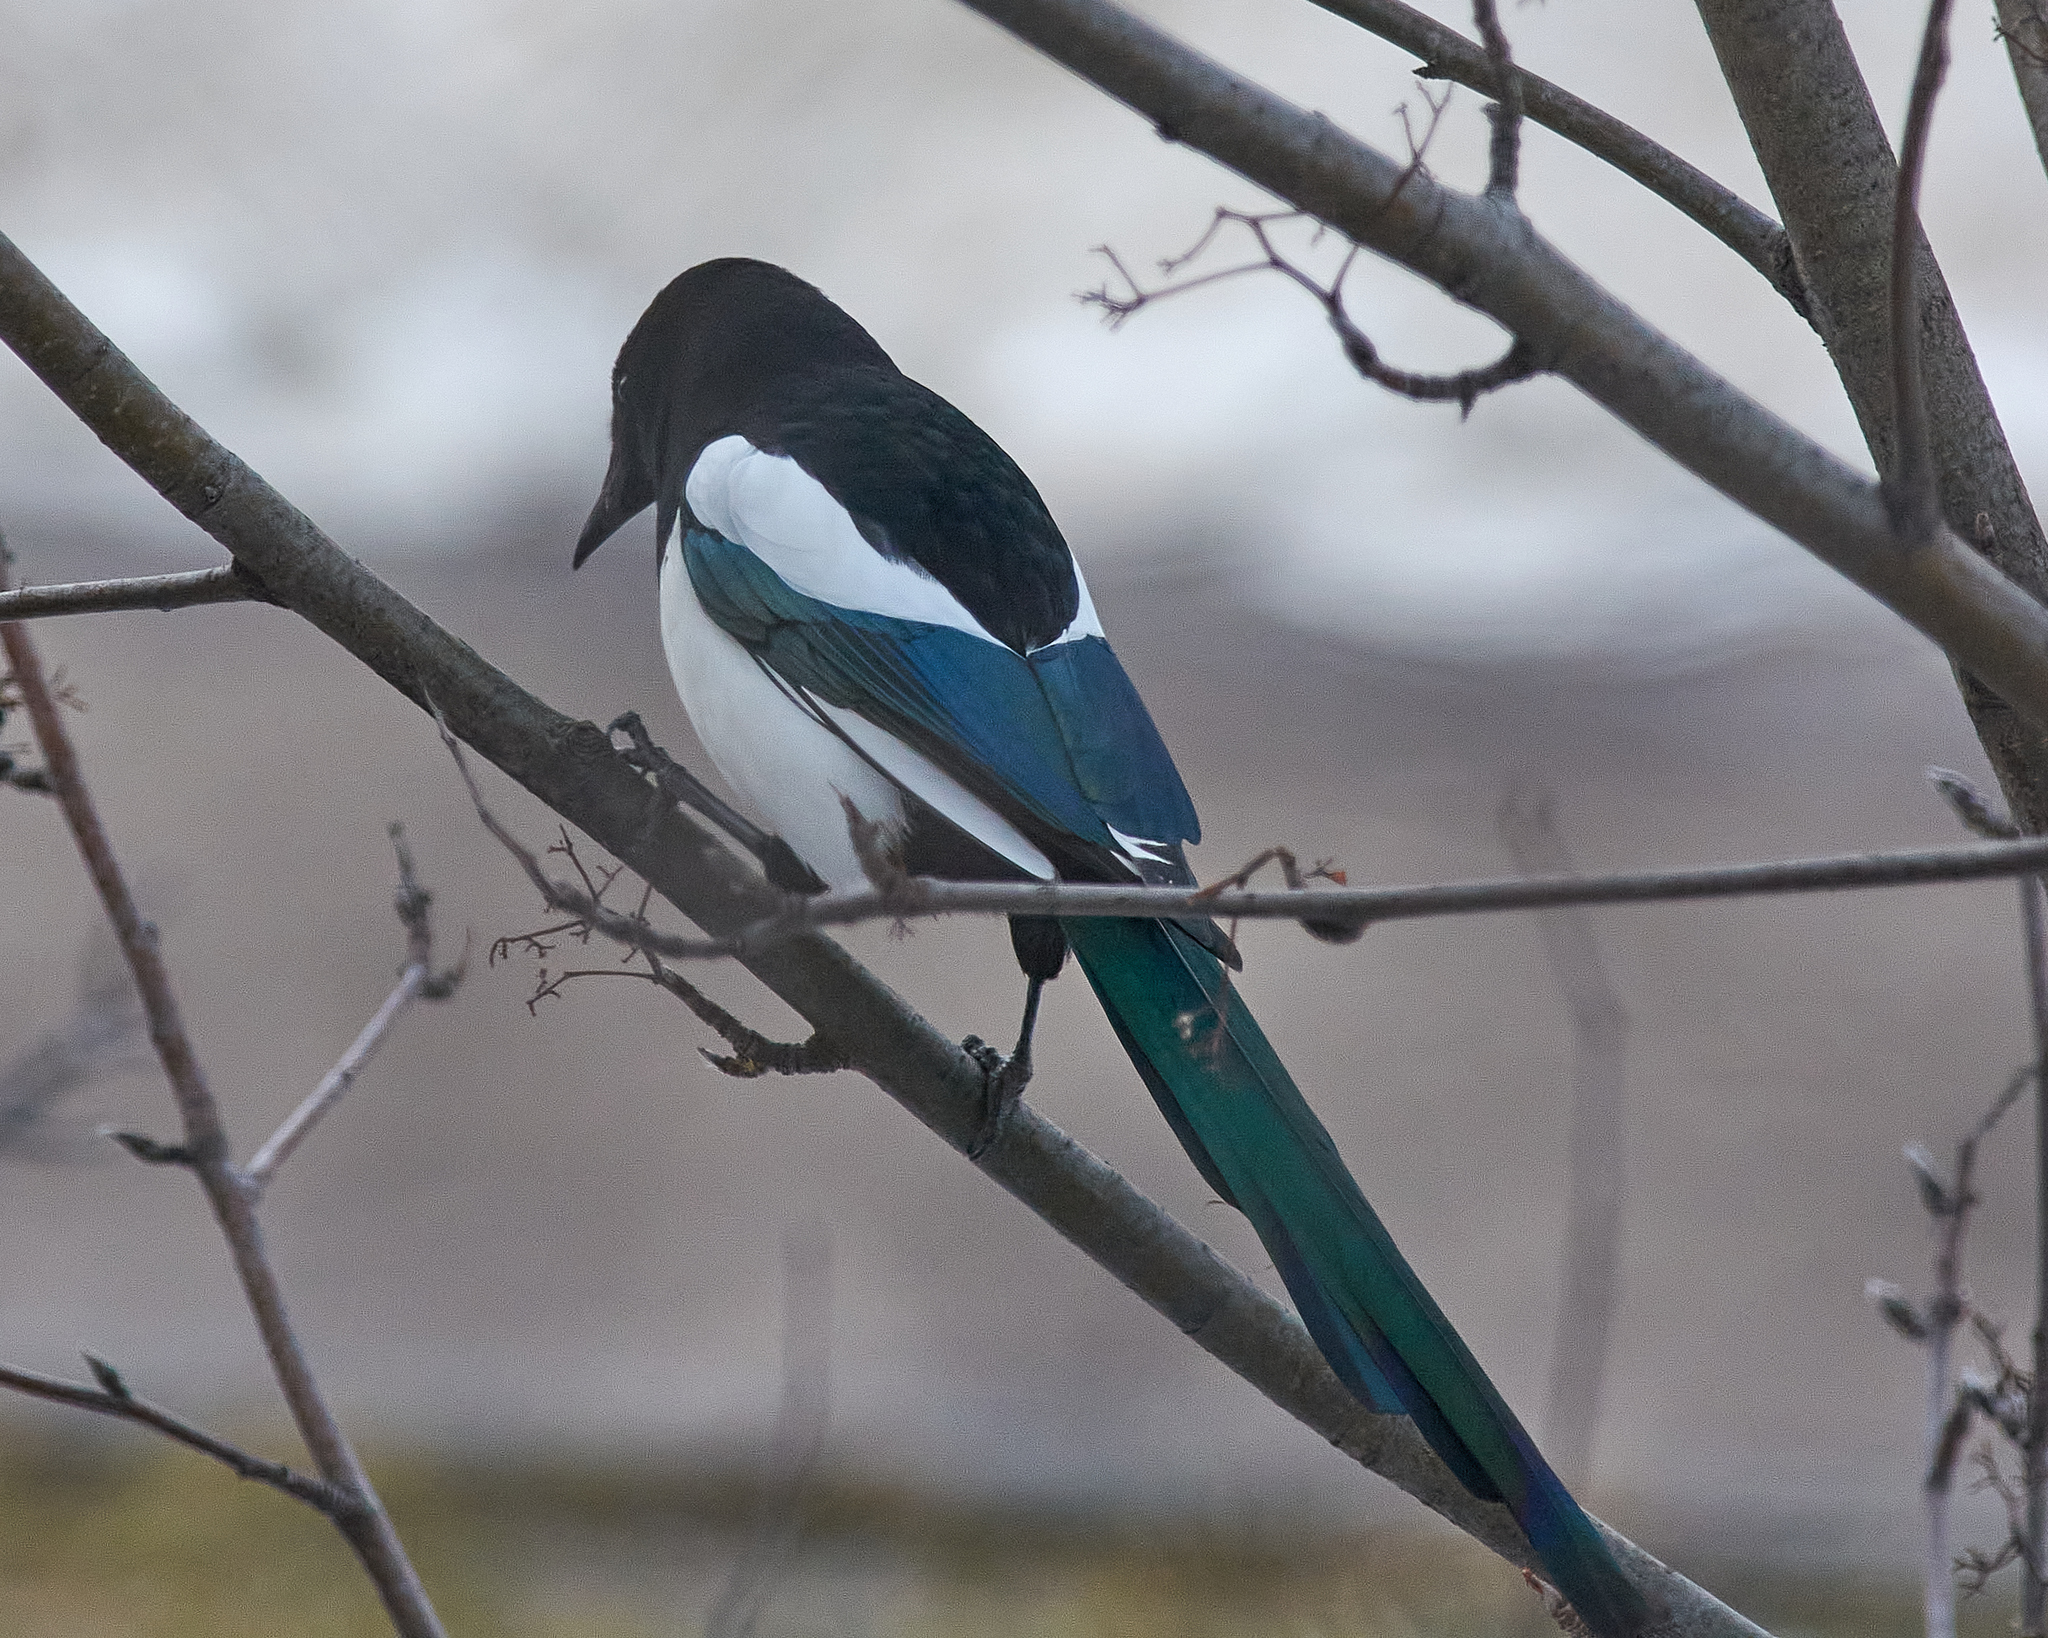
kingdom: Animalia
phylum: Chordata
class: Aves
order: Passeriformes
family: Corvidae
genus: Pica
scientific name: Pica pica
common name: Eurasian magpie
